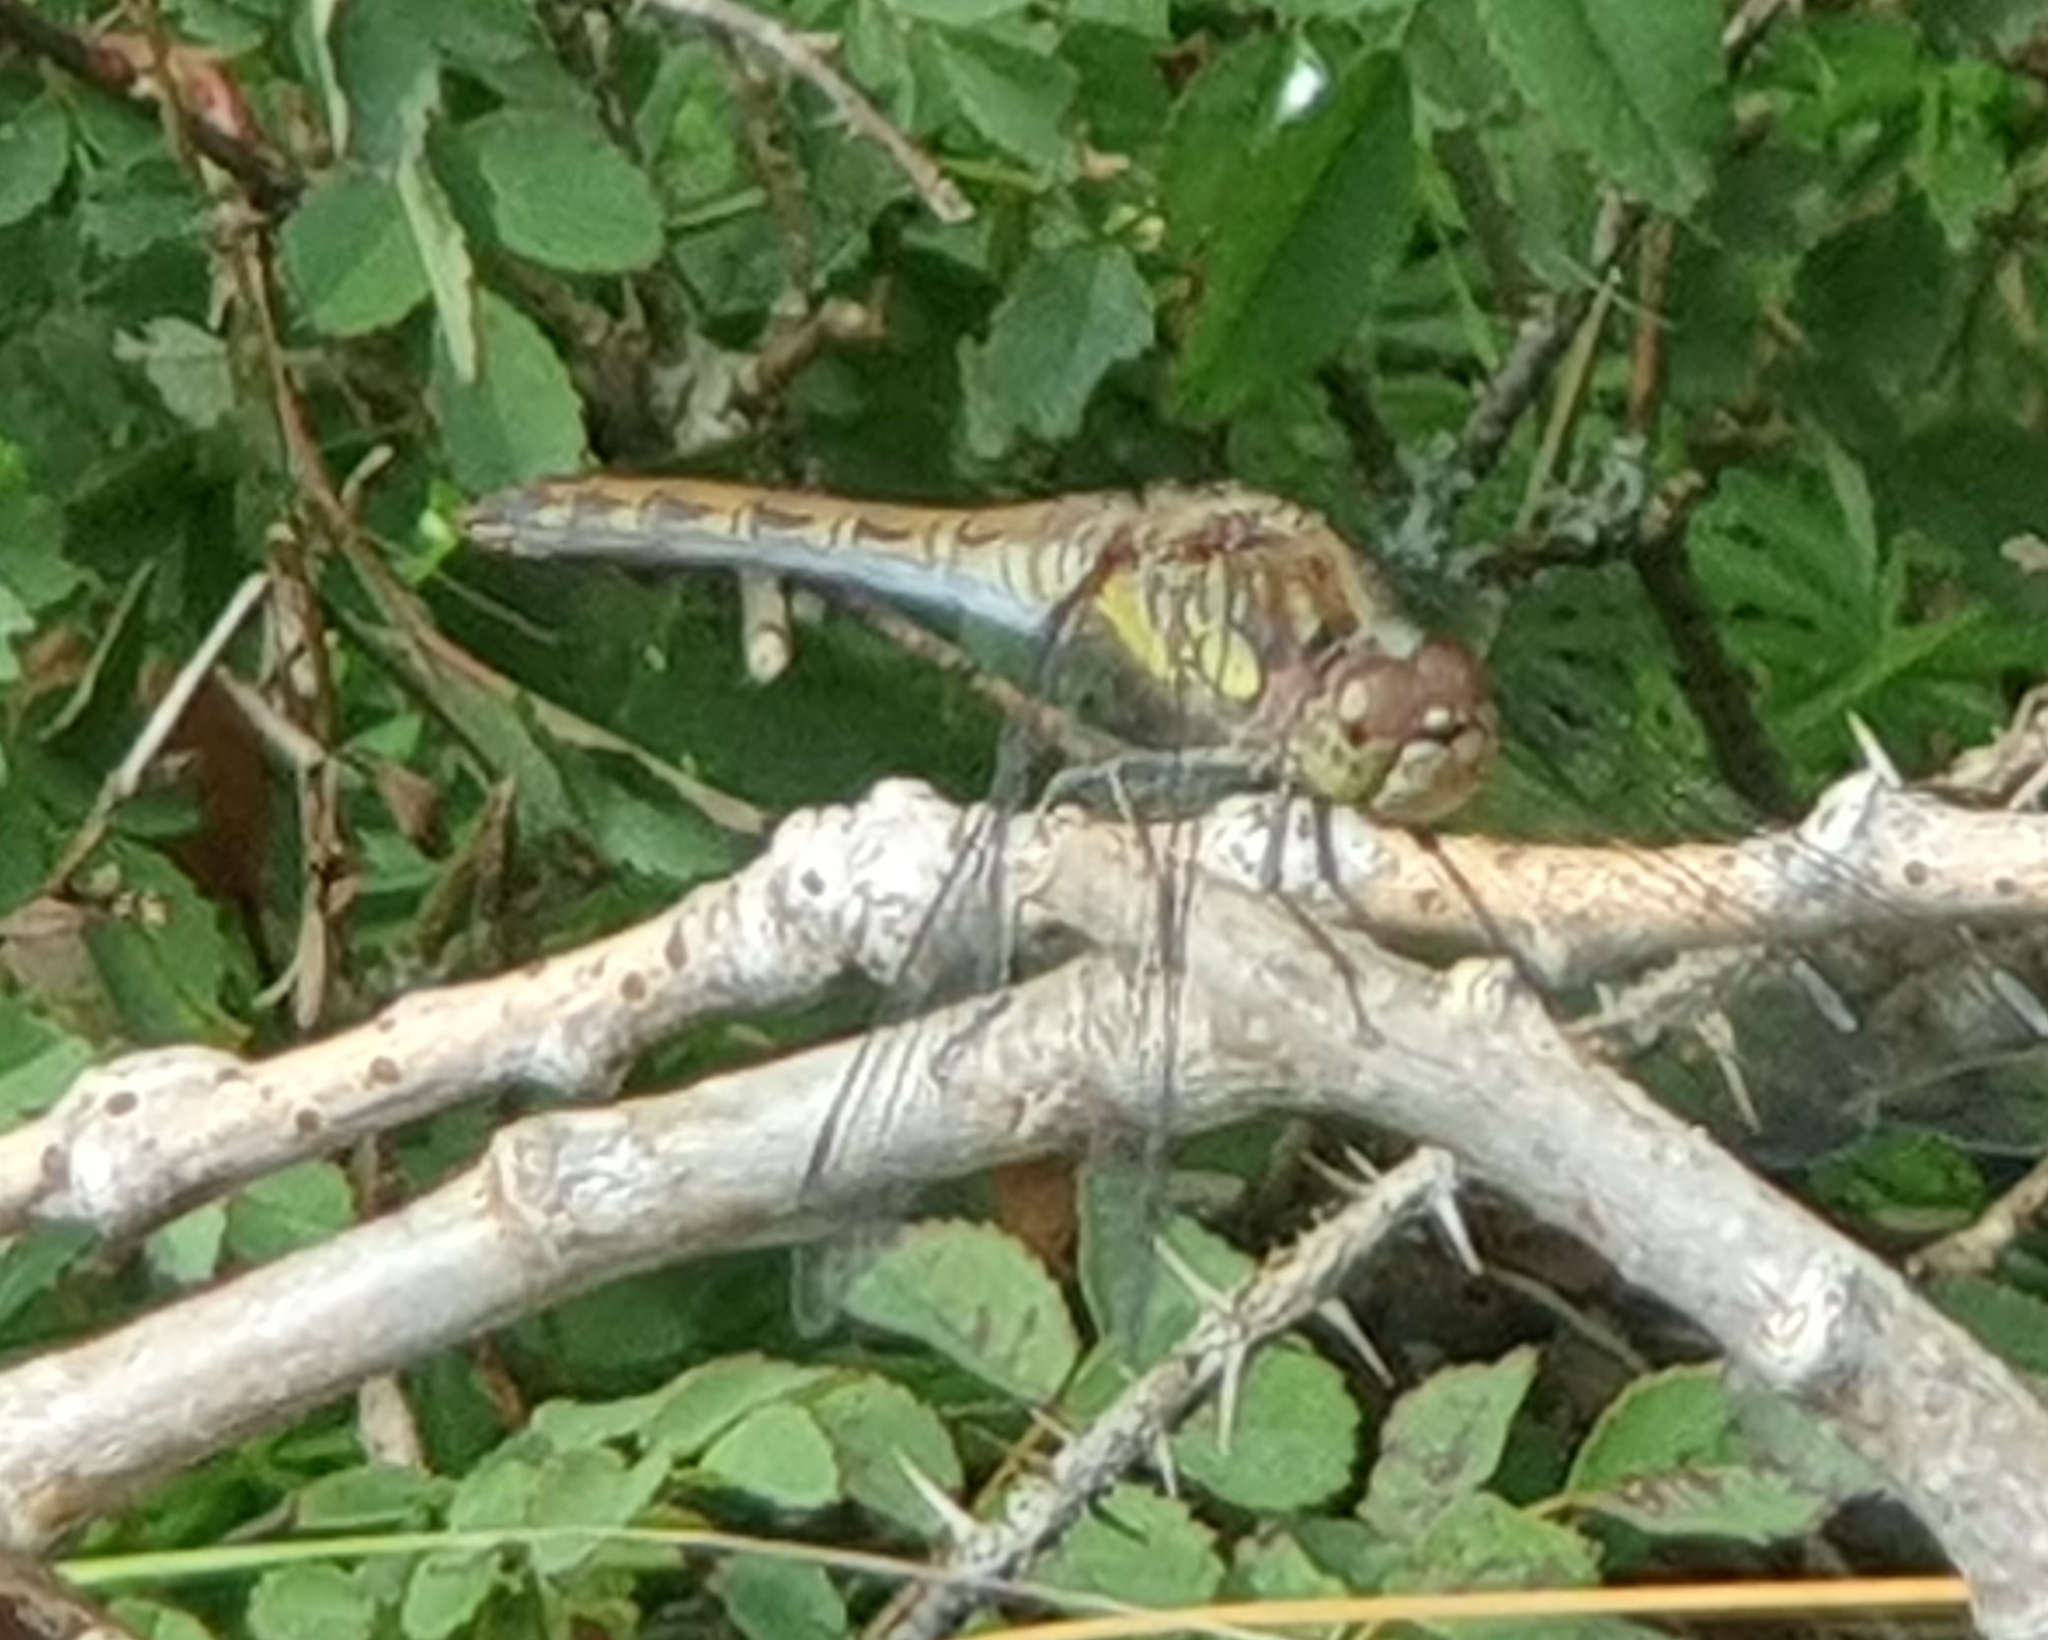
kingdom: Animalia
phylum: Arthropoda
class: Insecta
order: Odonata
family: Libellulidae
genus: Sympetrum
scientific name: Sympetrum striolatum
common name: Common darter
